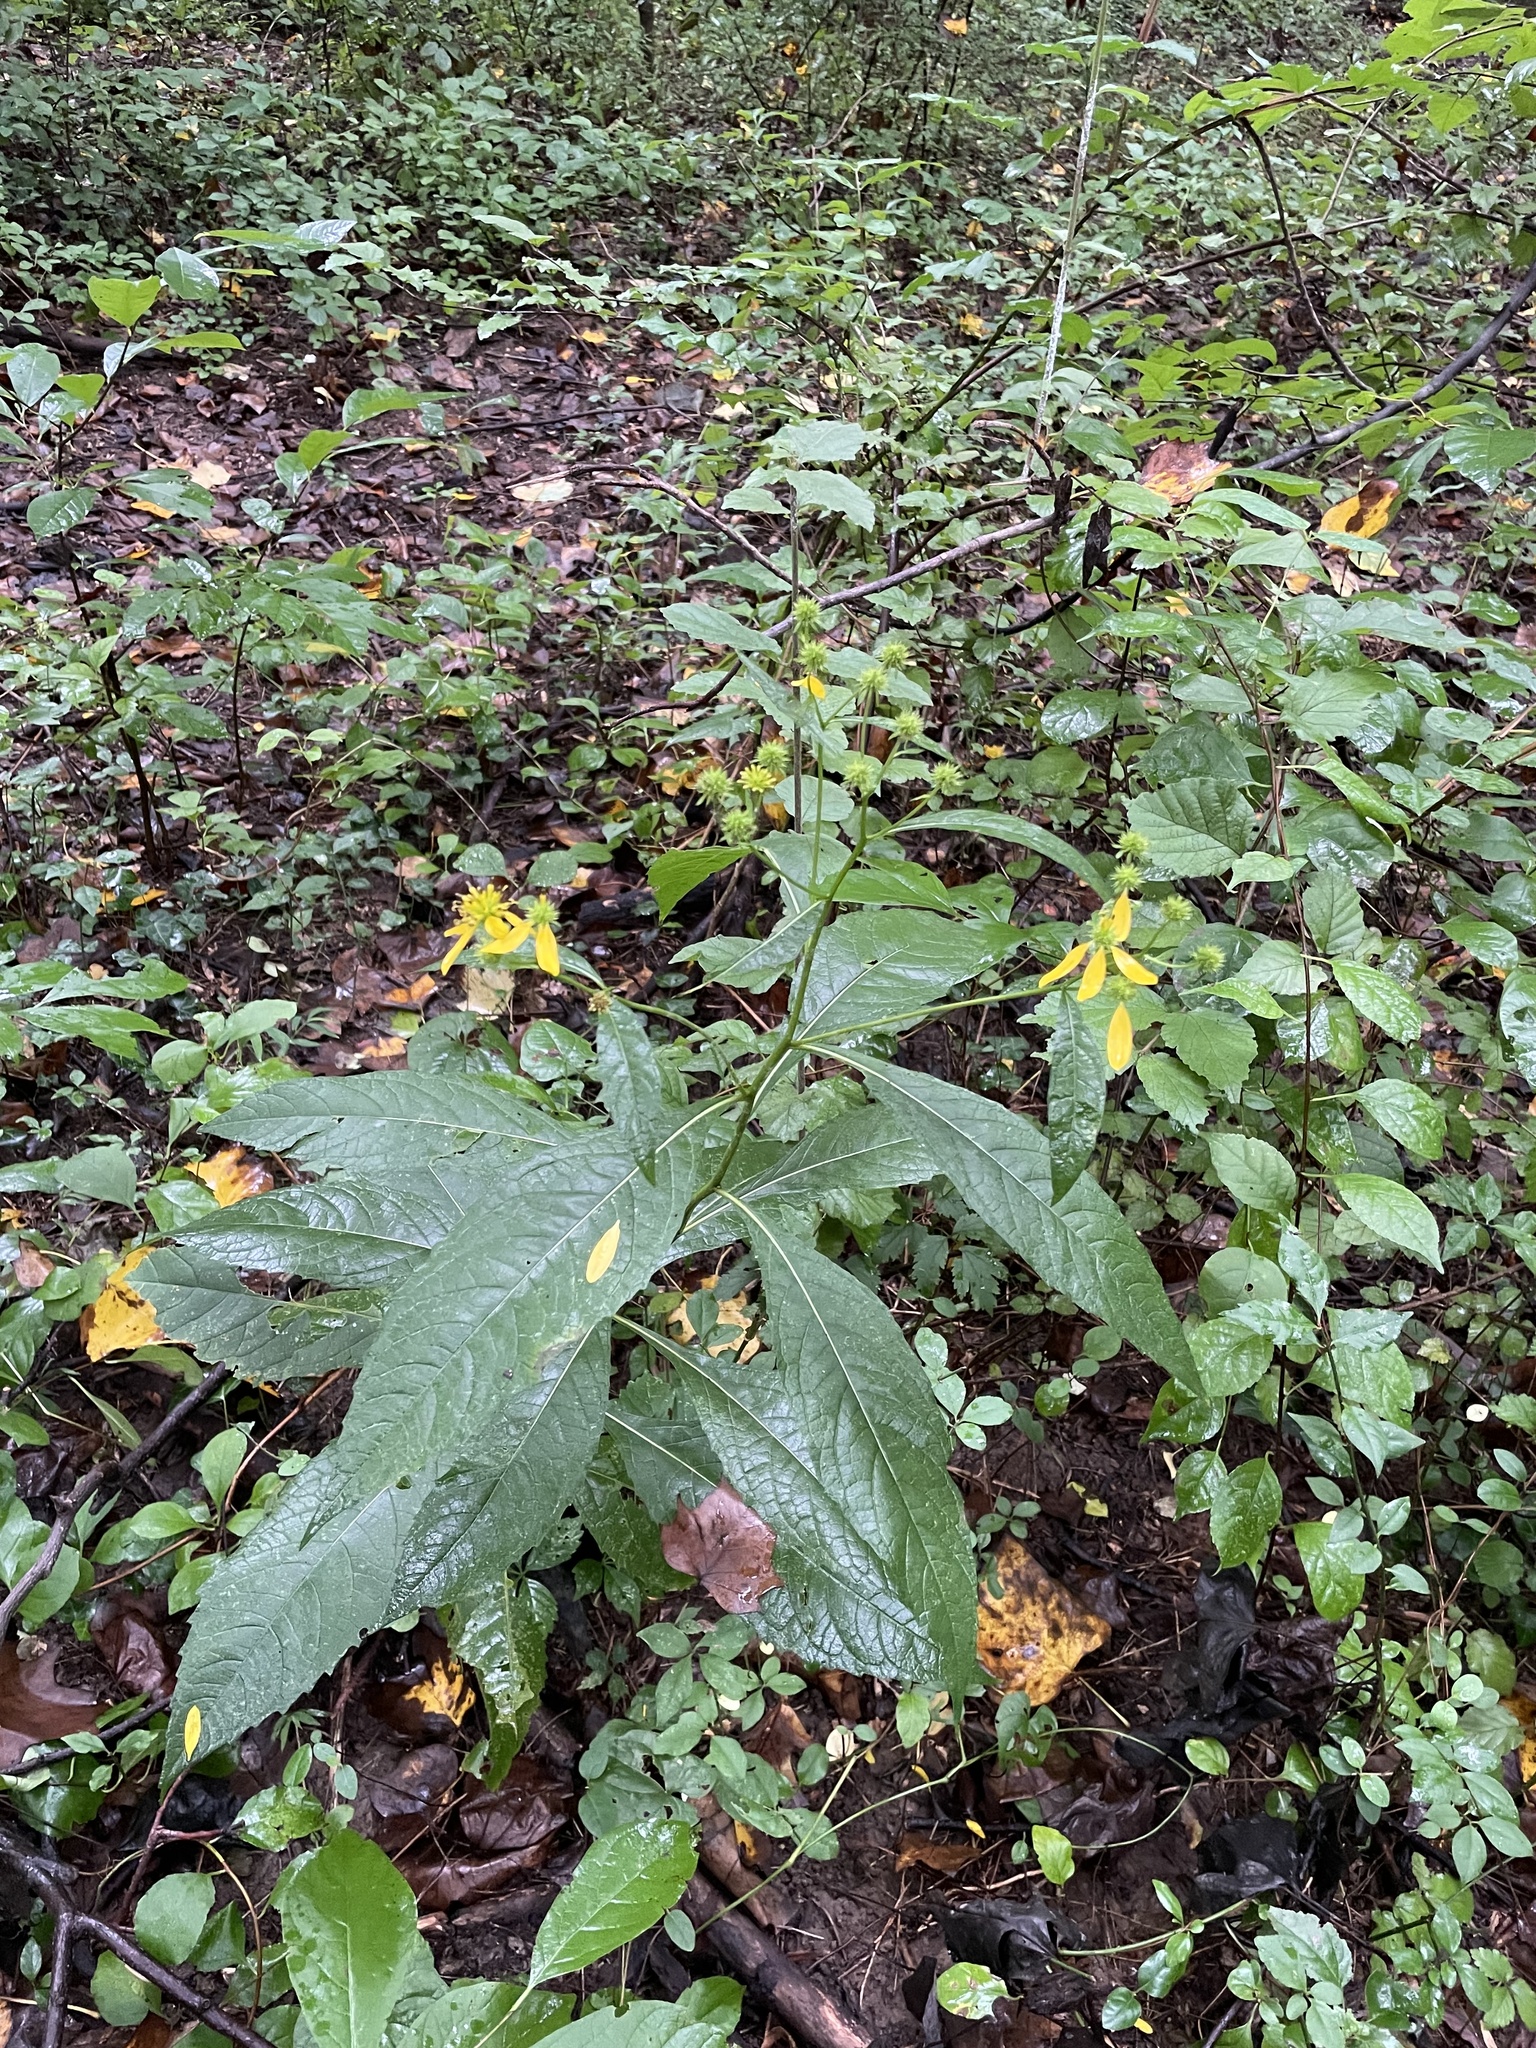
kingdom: Plantae
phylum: Tracheophyta
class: Magnoliopsida
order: Asterales
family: Asteraceae
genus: Verbesina
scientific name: Verbesina alternifolia
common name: Wingstem
